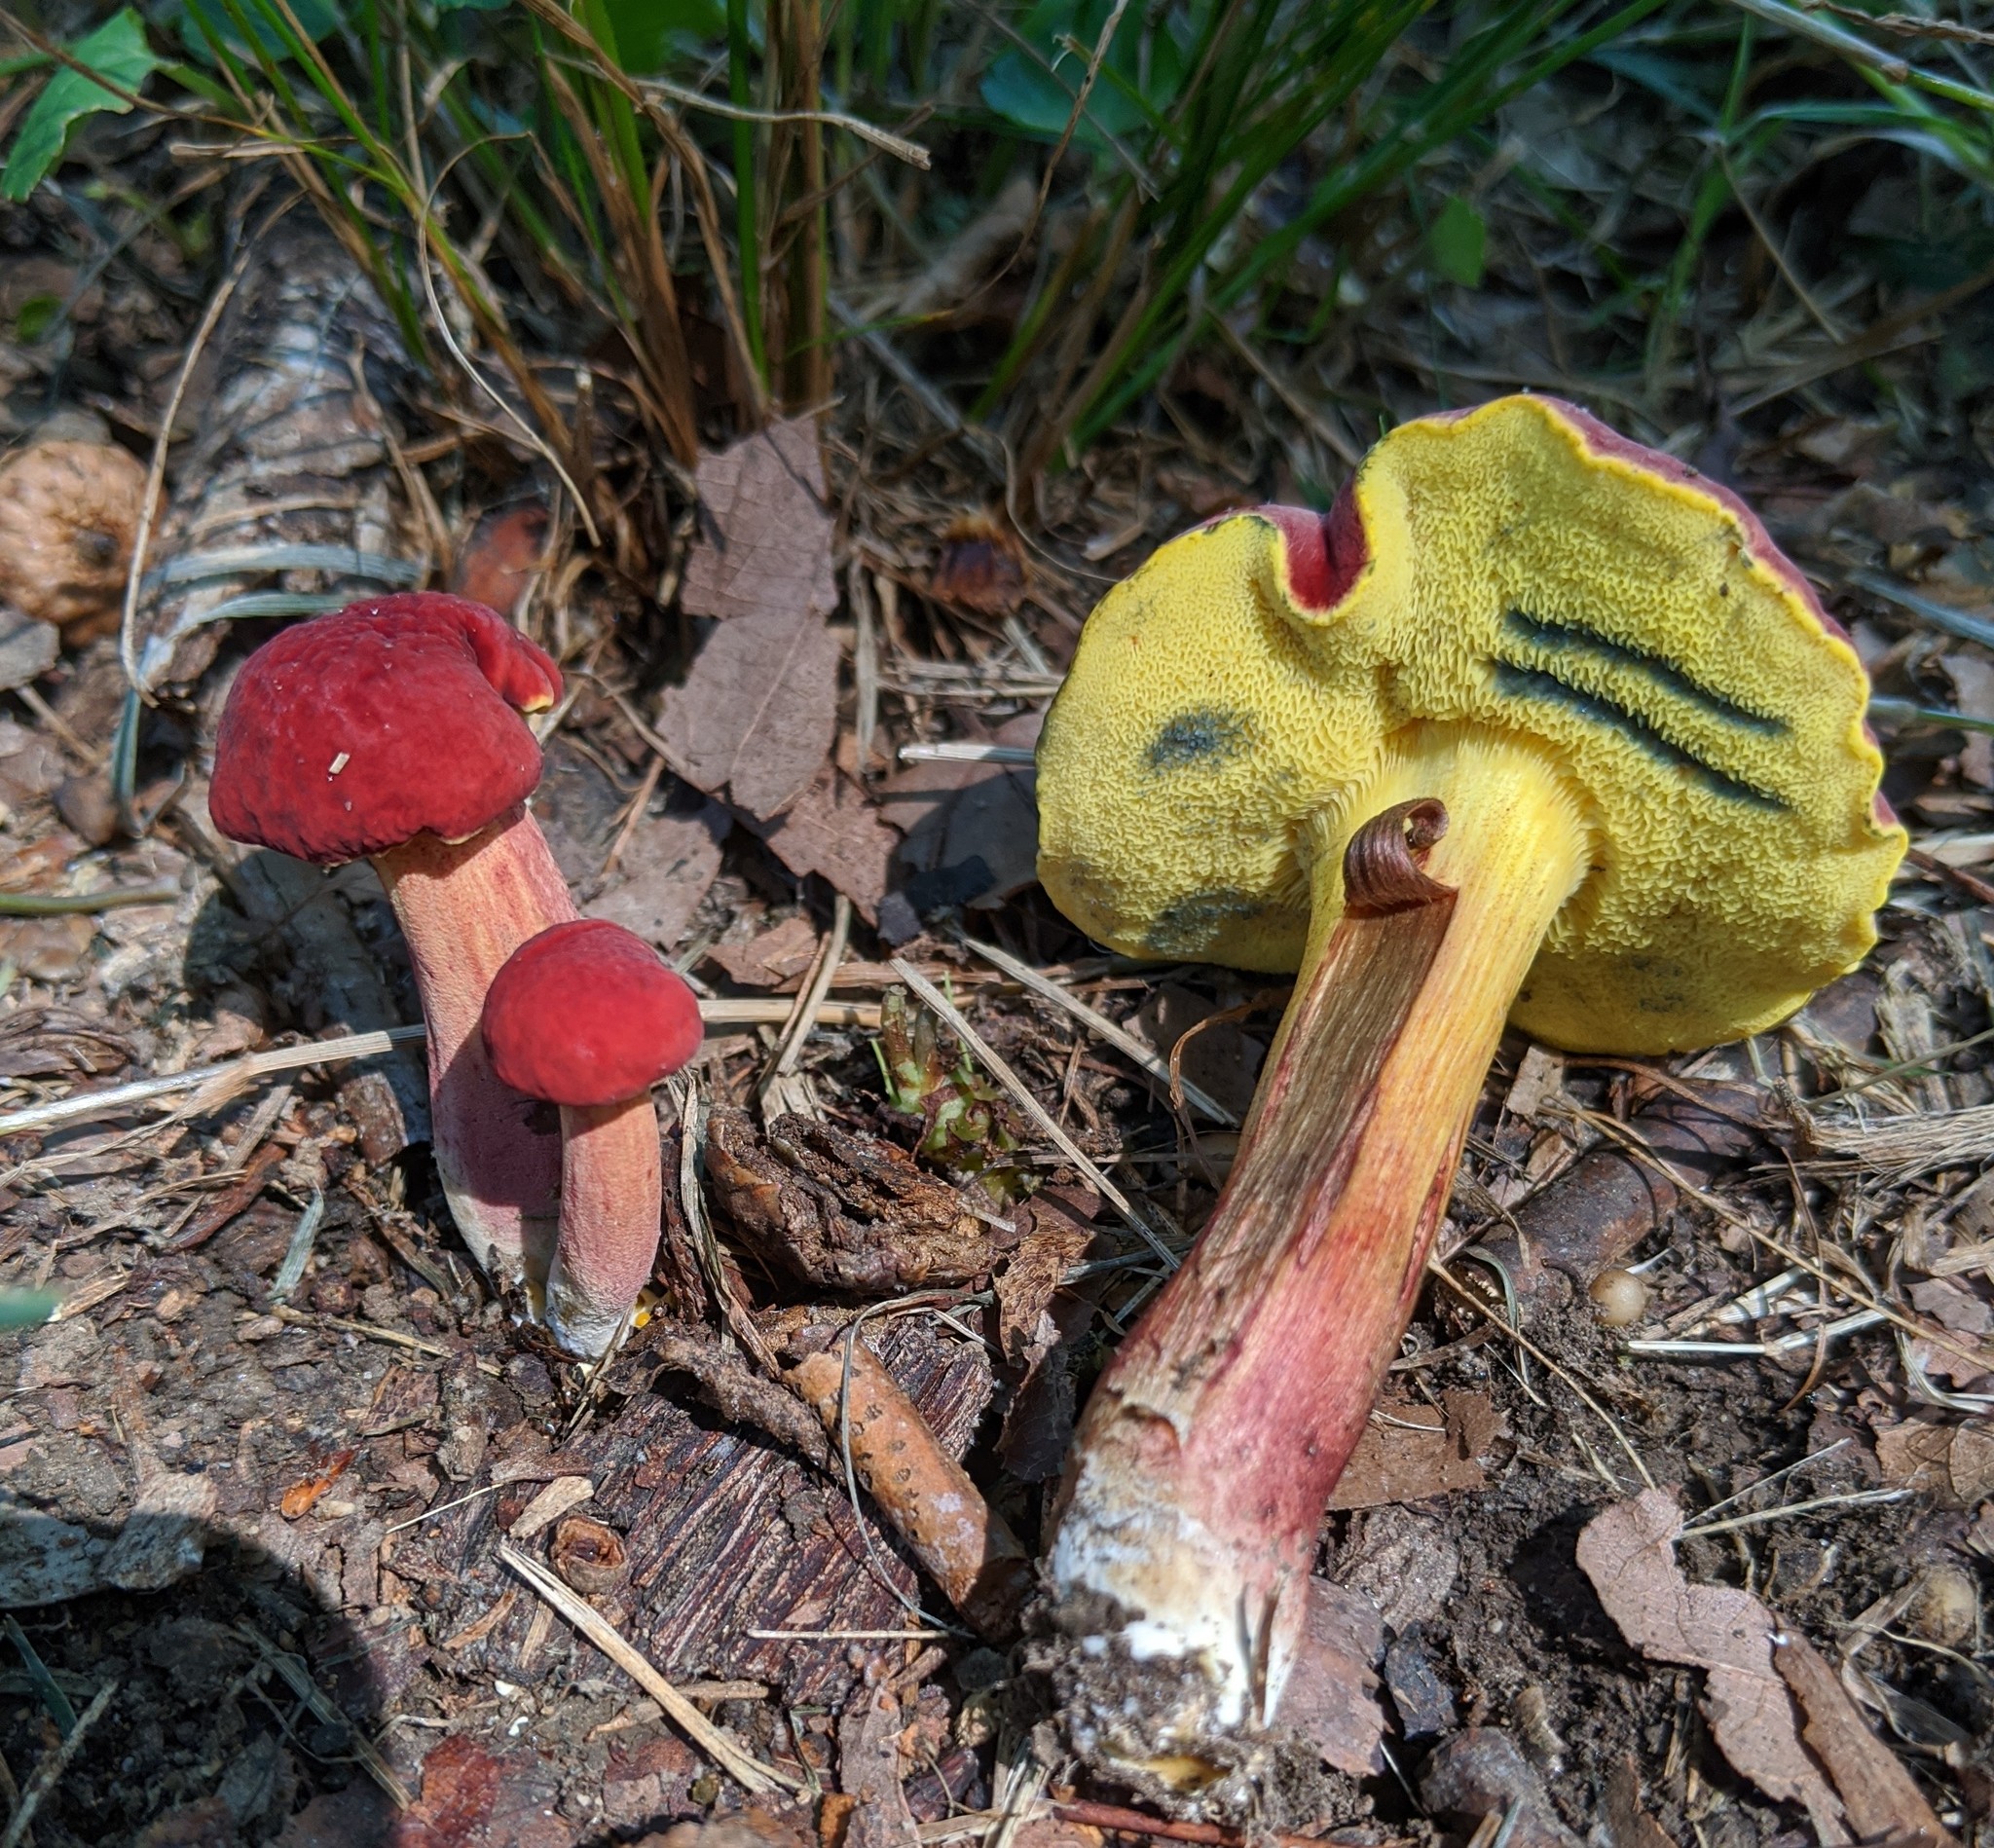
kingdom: Fungi
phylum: Basidiomycota
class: Agaricomycetes
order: Boletales
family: Boletaceae
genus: Hortiboletus
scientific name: Hortiboletus campestris
